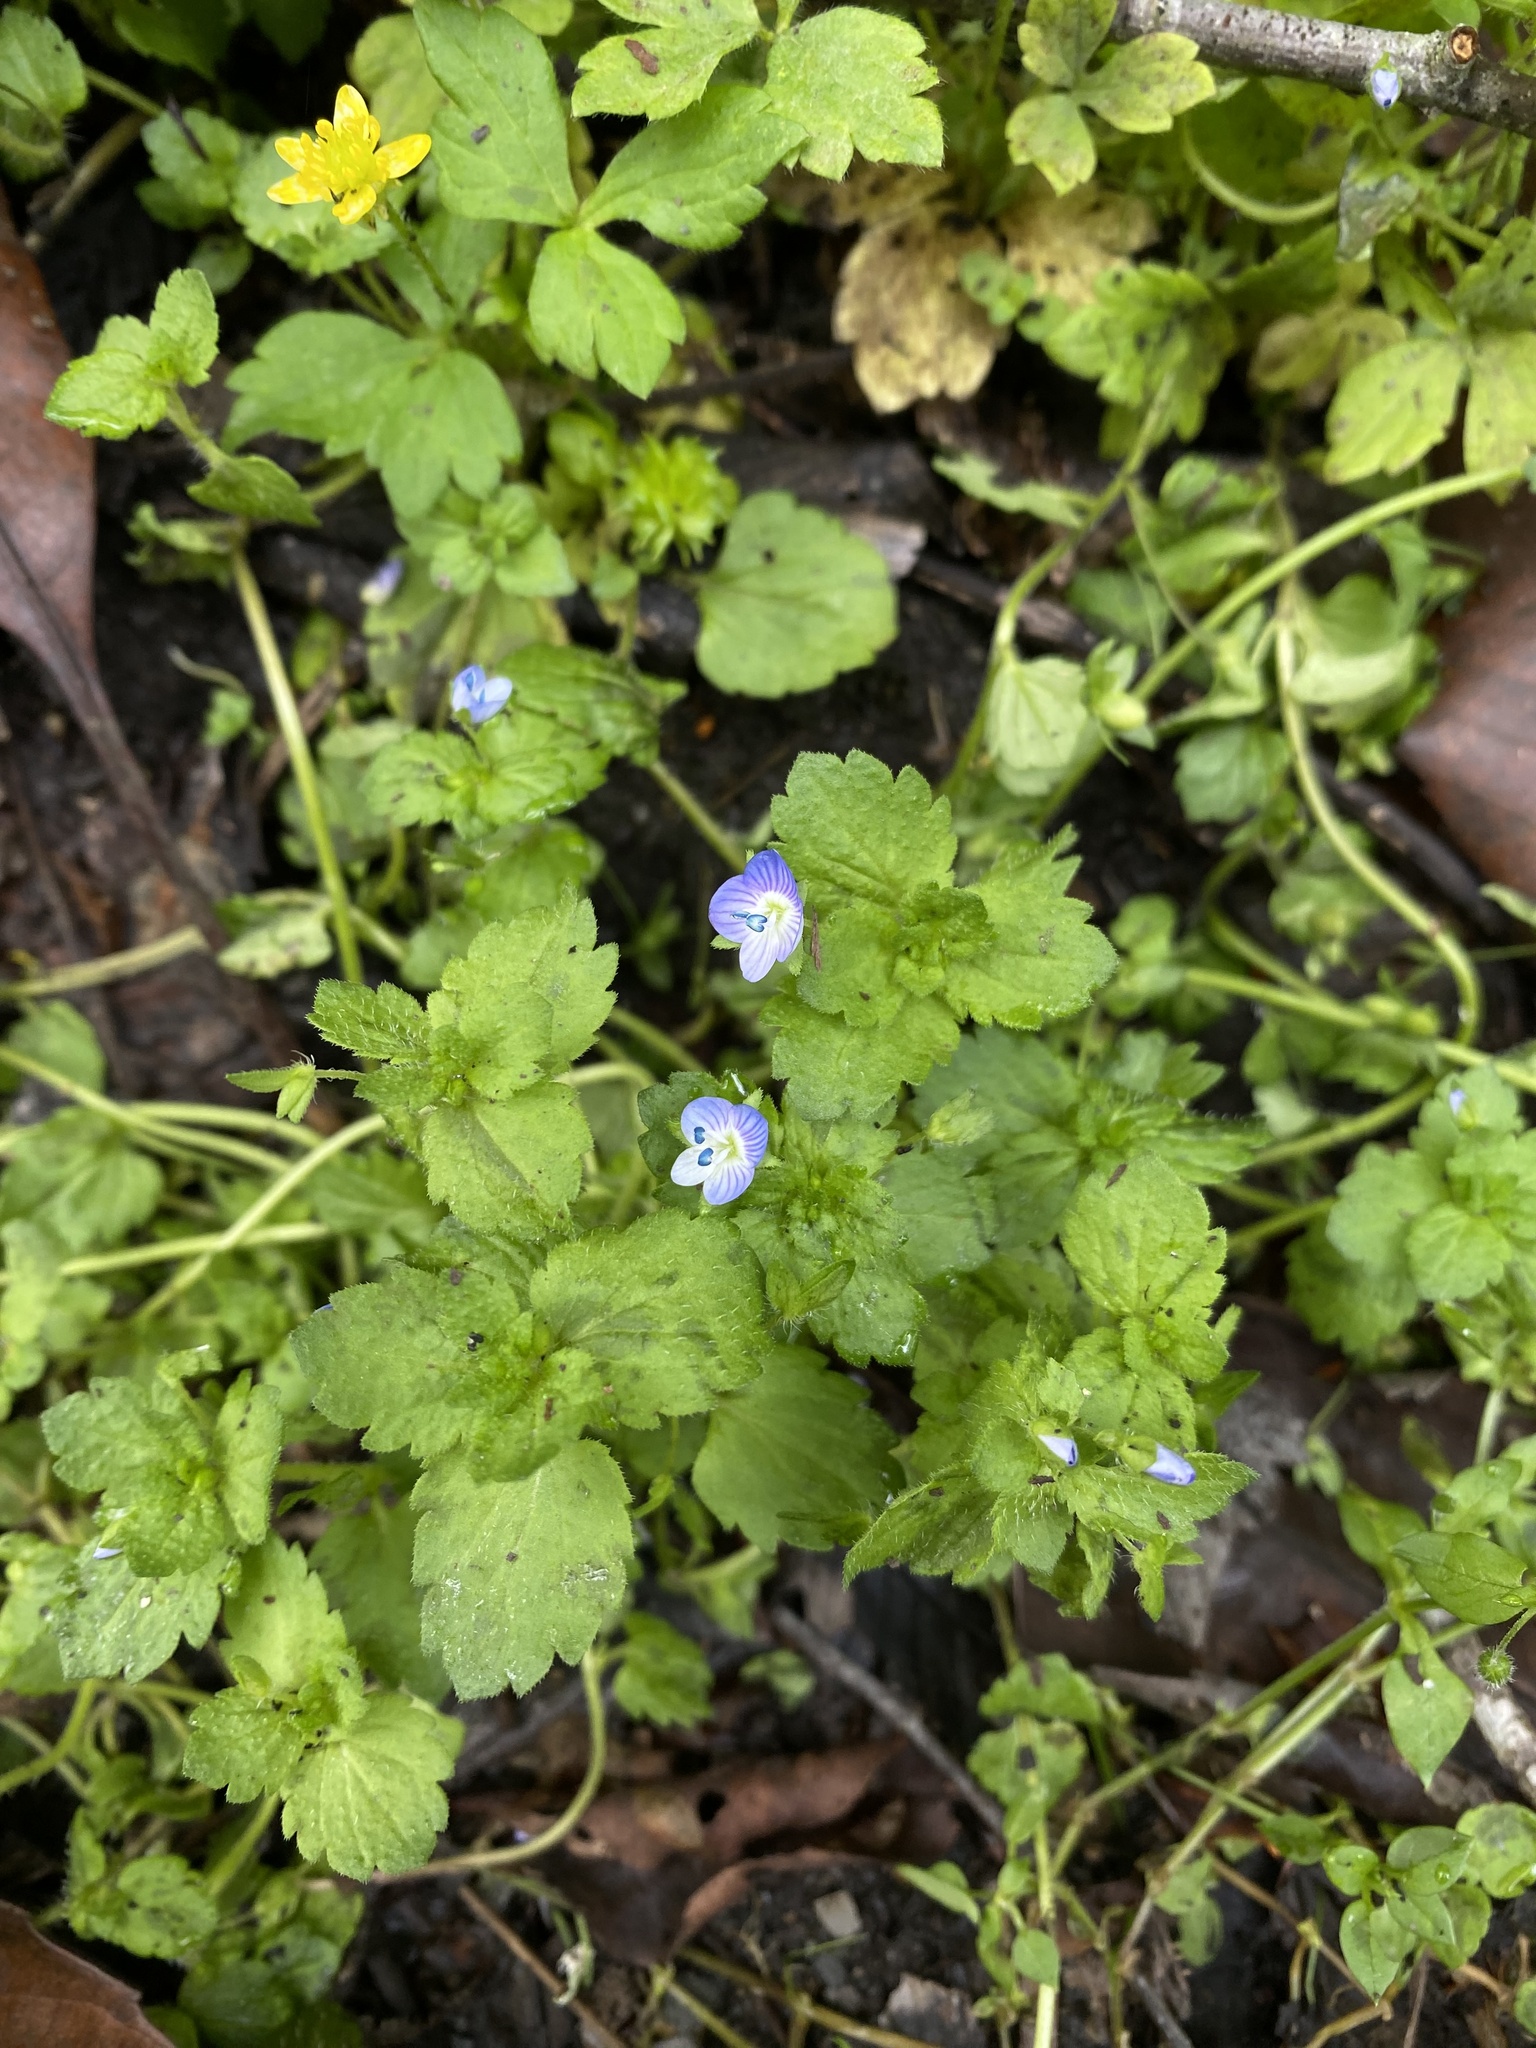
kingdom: Plantae
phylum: Tracheophyta
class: Magnoliopsida
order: Lamiales
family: Plantaginaceae
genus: Veronica
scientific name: Veronica persica
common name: Common field-speedwell
